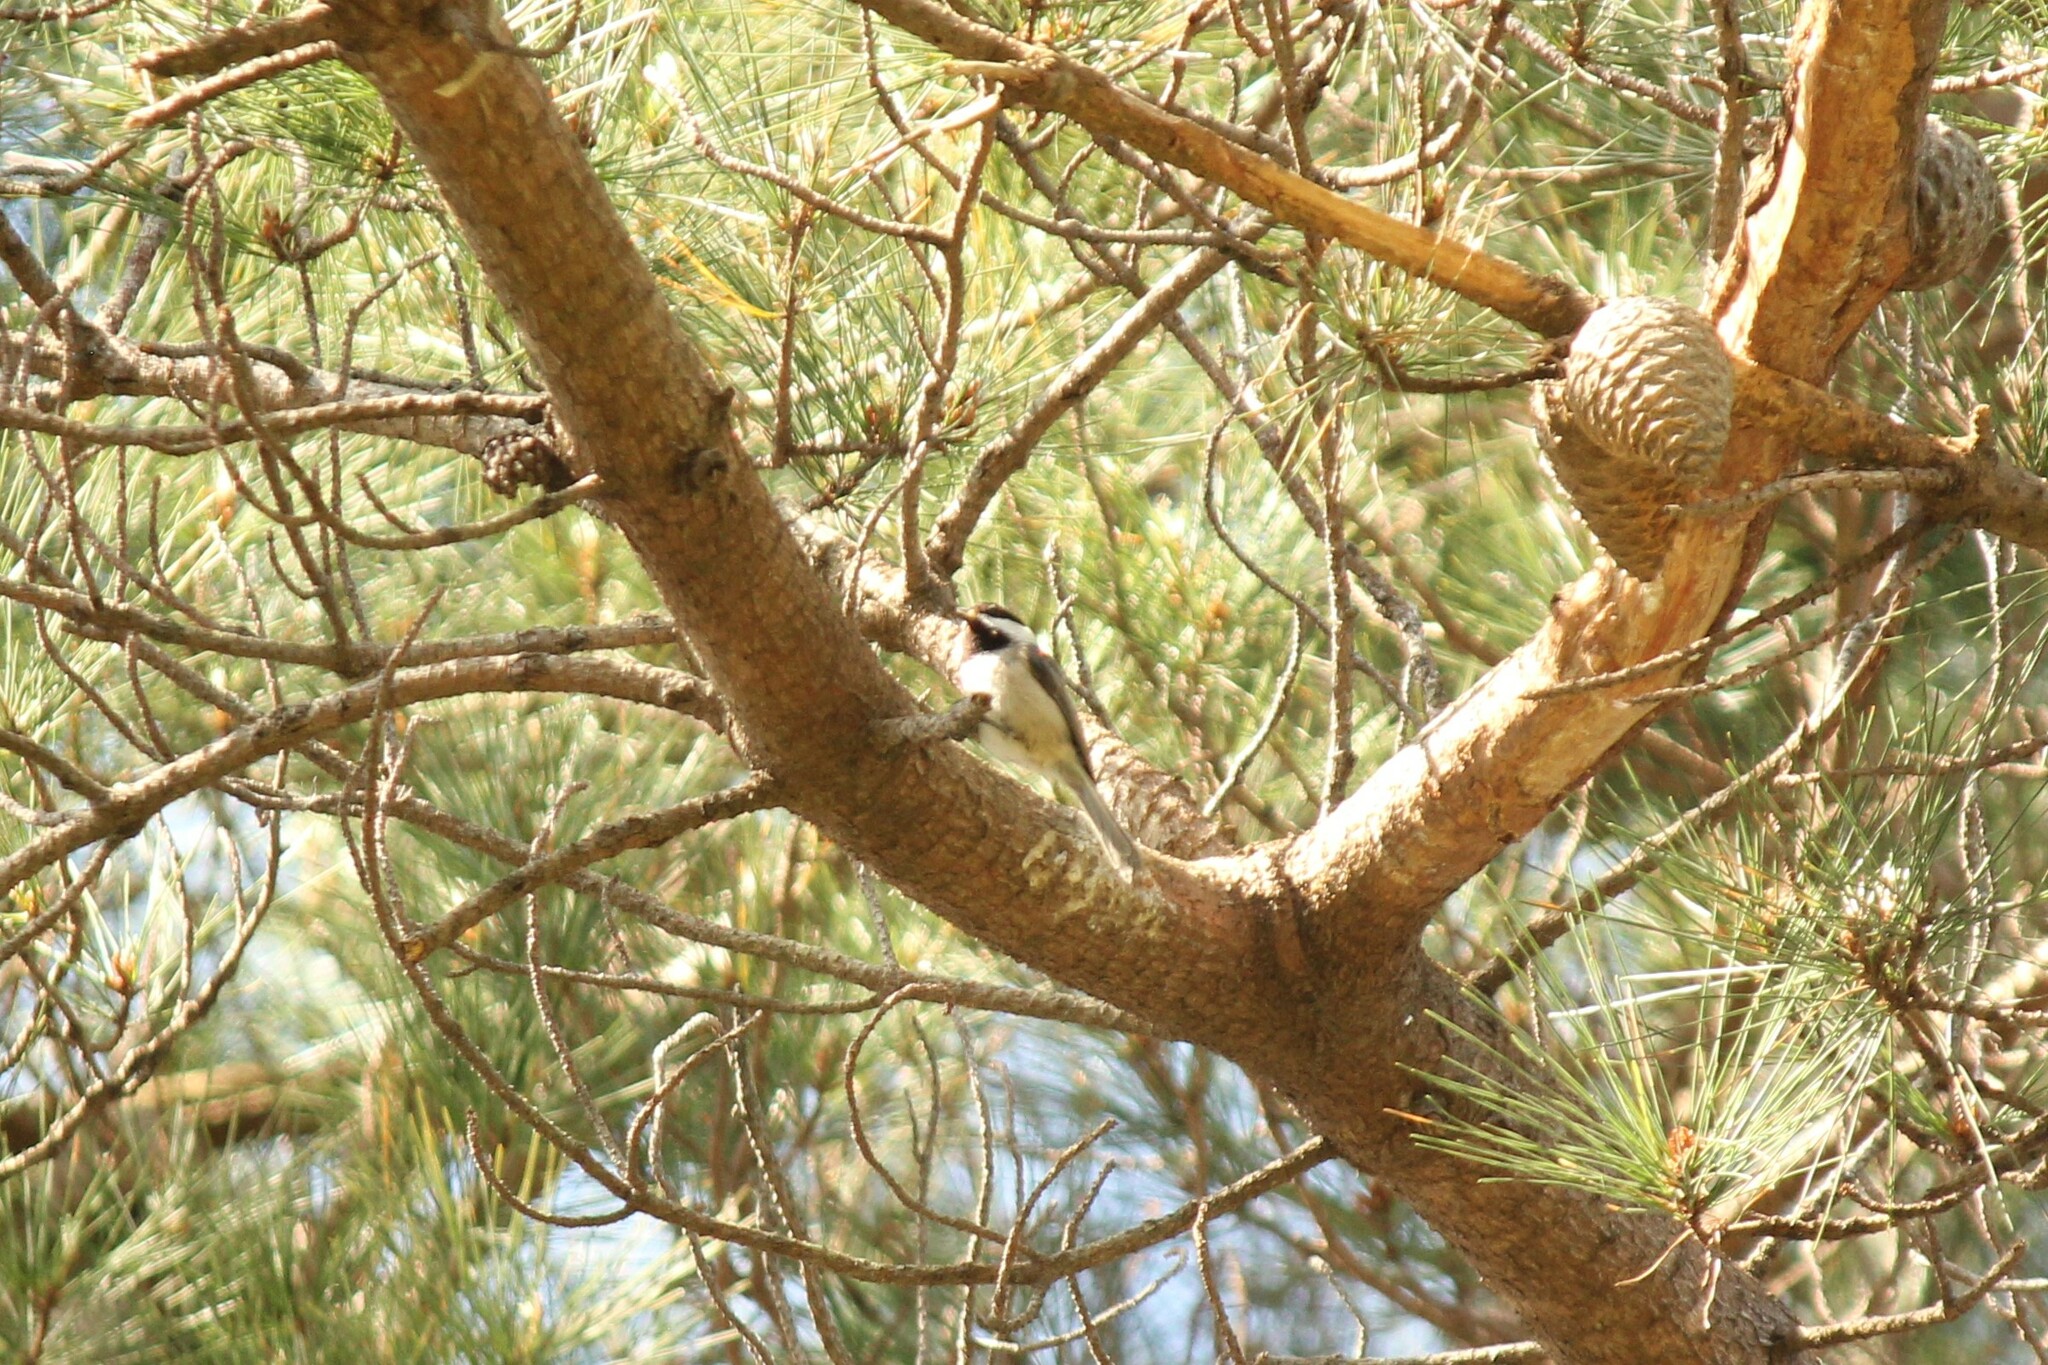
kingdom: Animalia
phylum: Chordata
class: Aves
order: Passeriformes
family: Paridae
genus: Poecile
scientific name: Poecile atricapillus
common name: Black-capped chickadee
